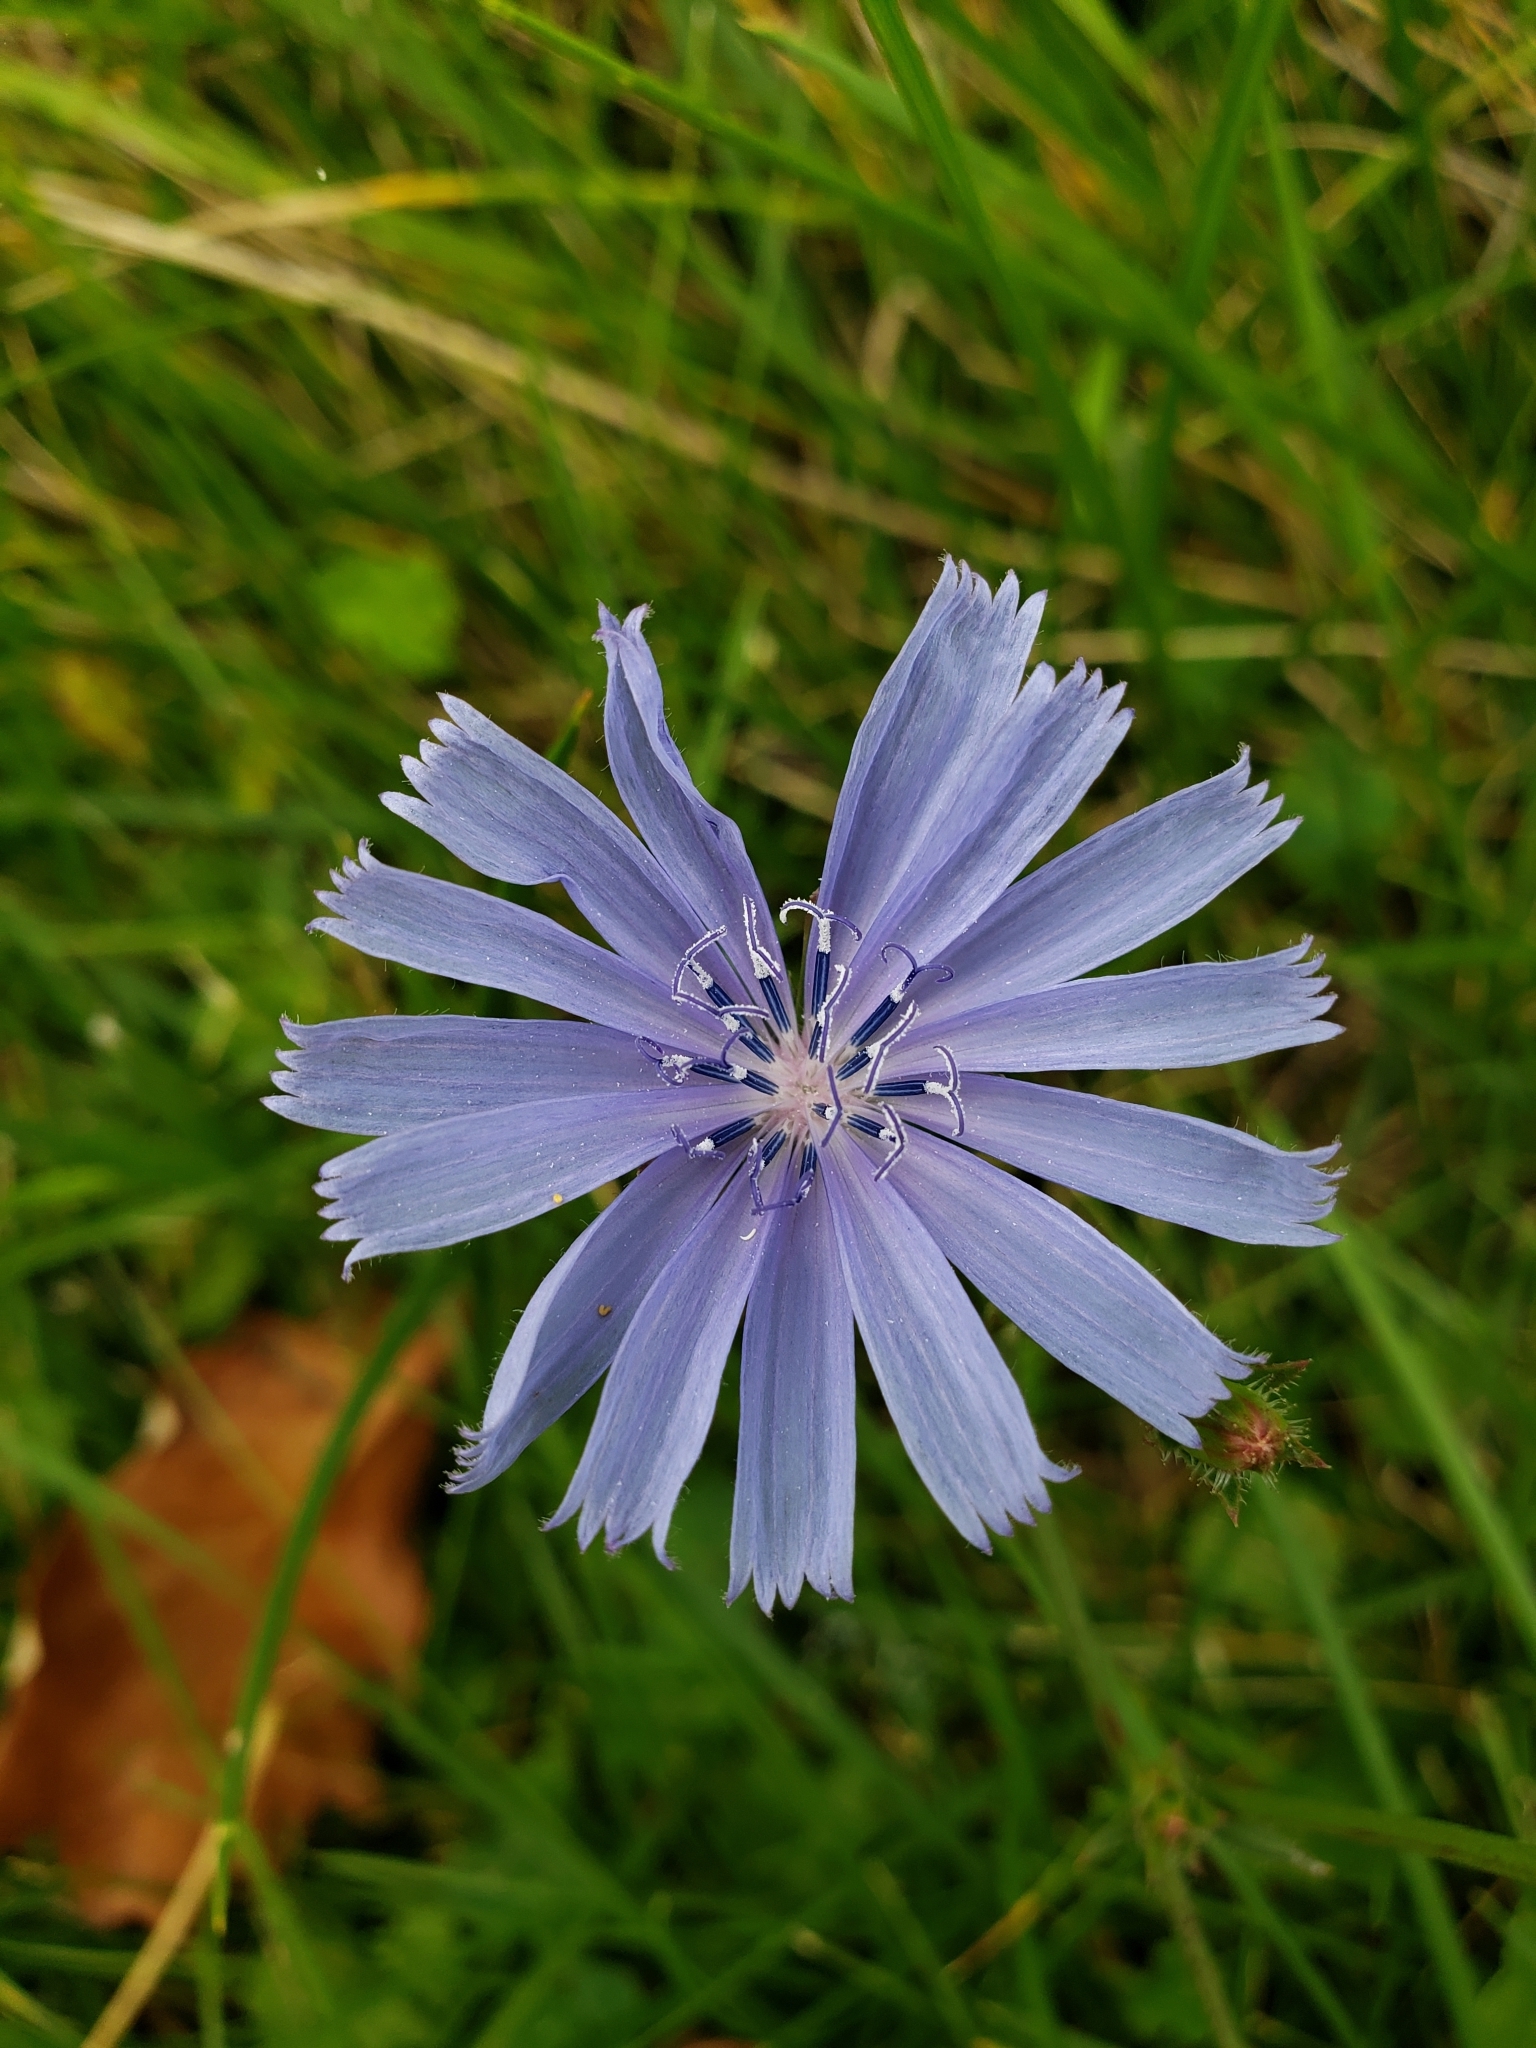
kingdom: Plantae
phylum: Tracheophyta
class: Magnoliopsida
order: Asterales
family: Asteraceae
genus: Cichorium
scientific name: Cichorium intybus
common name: Chicory
